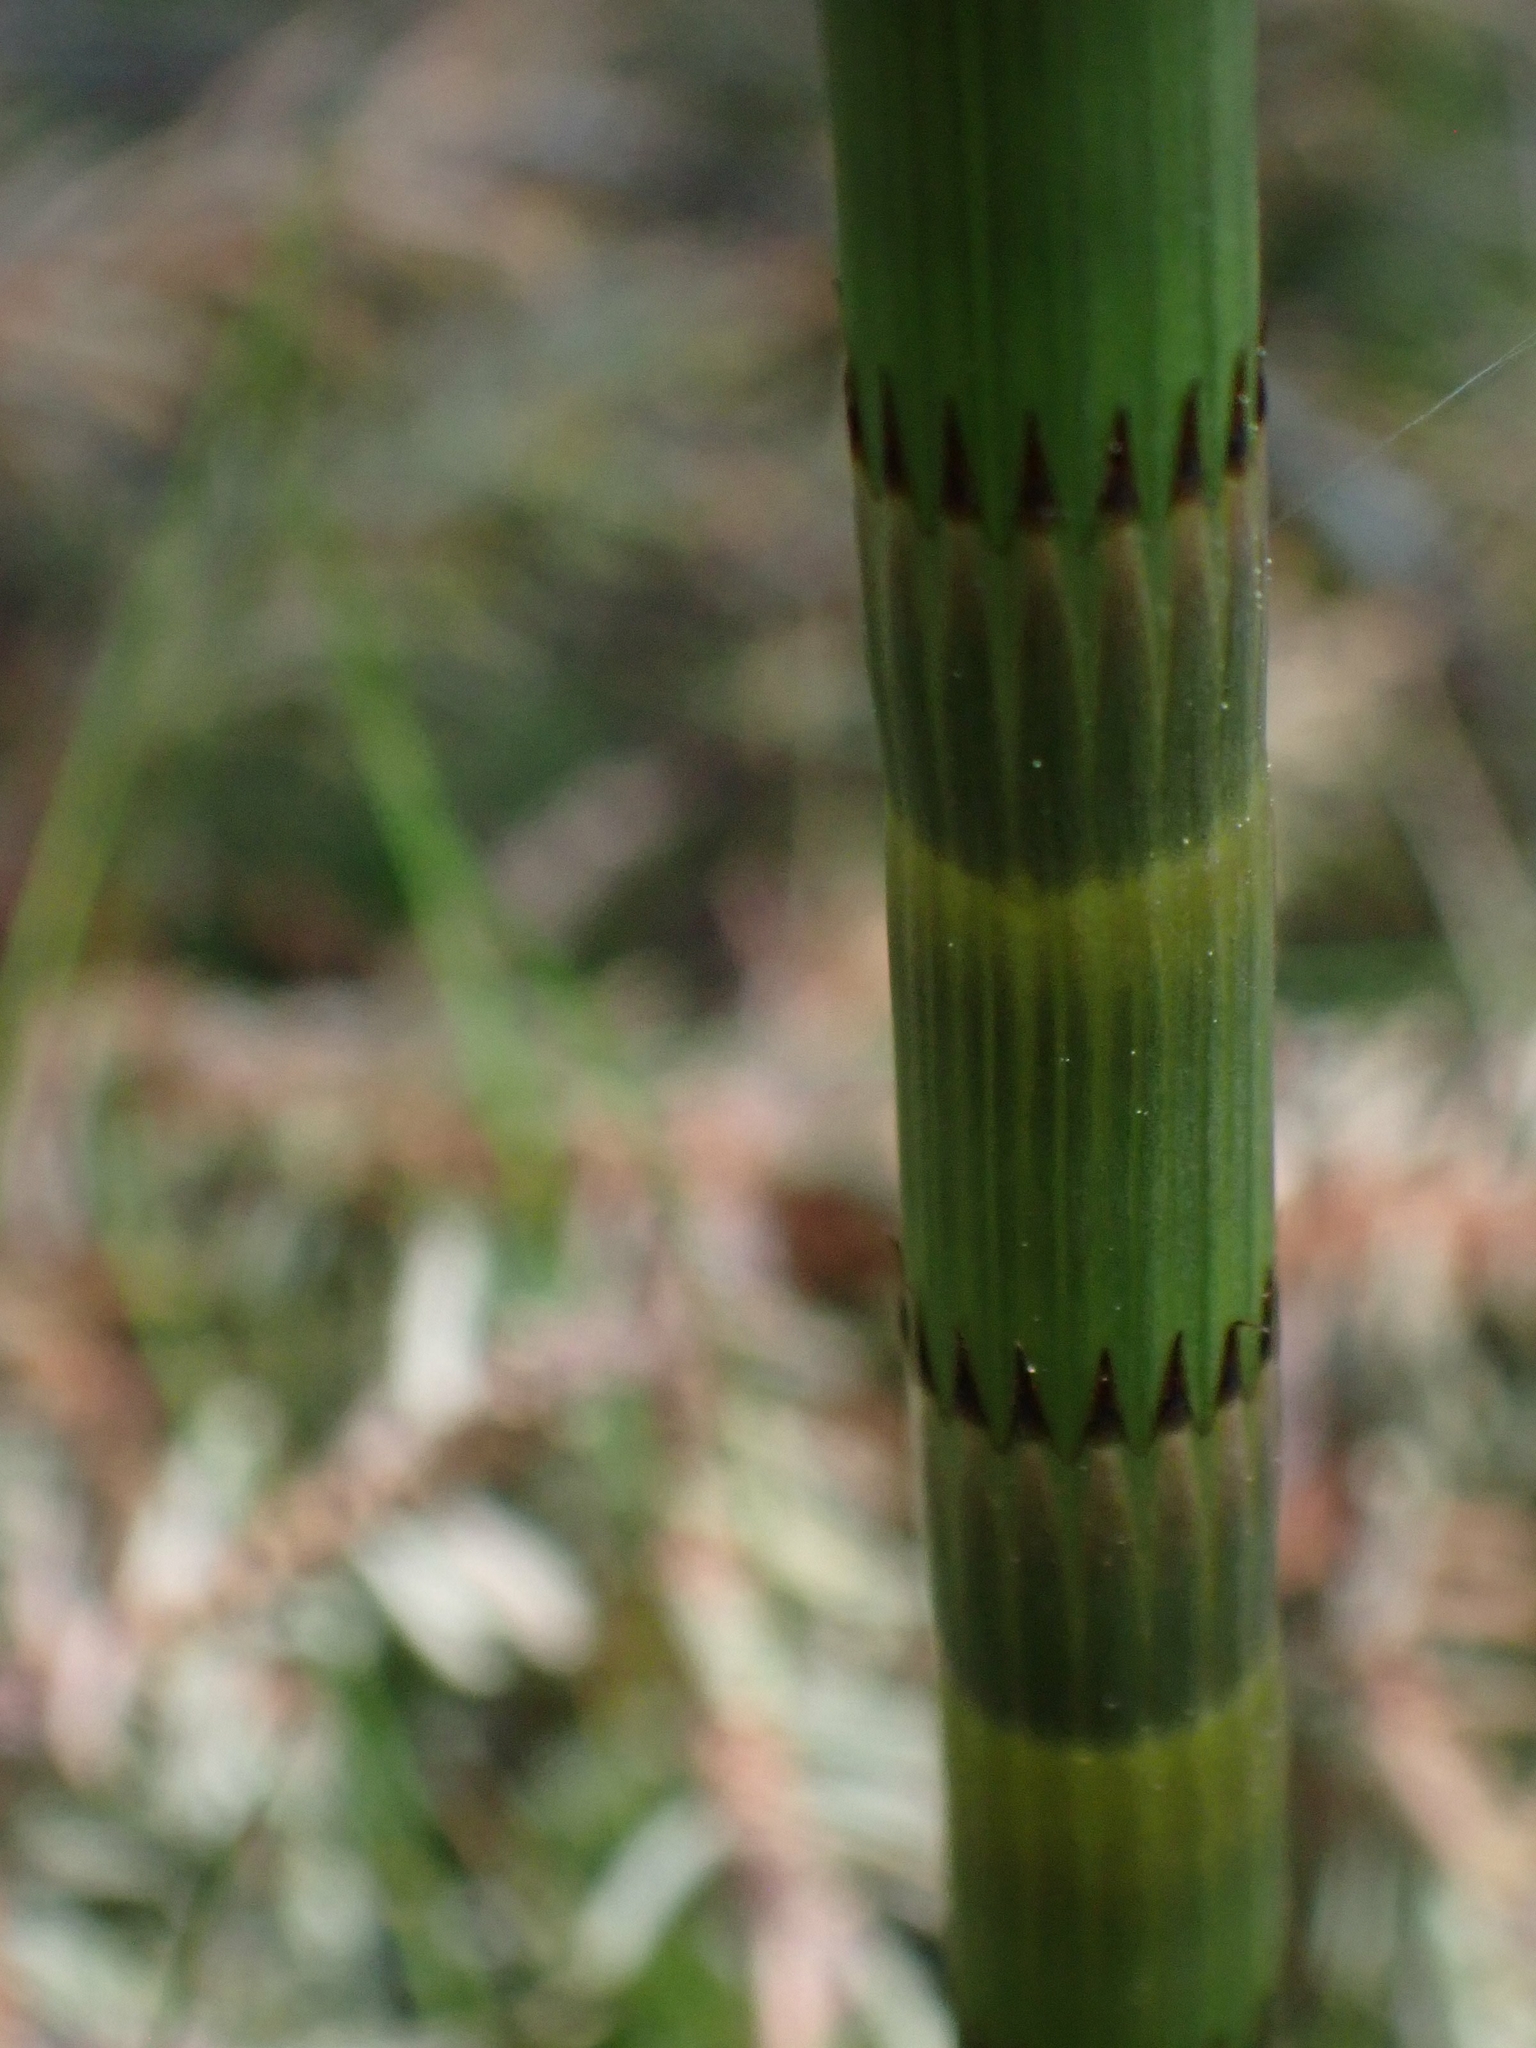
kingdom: Plantae
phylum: Tracheophyta
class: Polypodiopsida
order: Equisetales
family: Equisetaceae
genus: Equisetum
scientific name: Equisetum fluviatile
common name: Water horsetail
